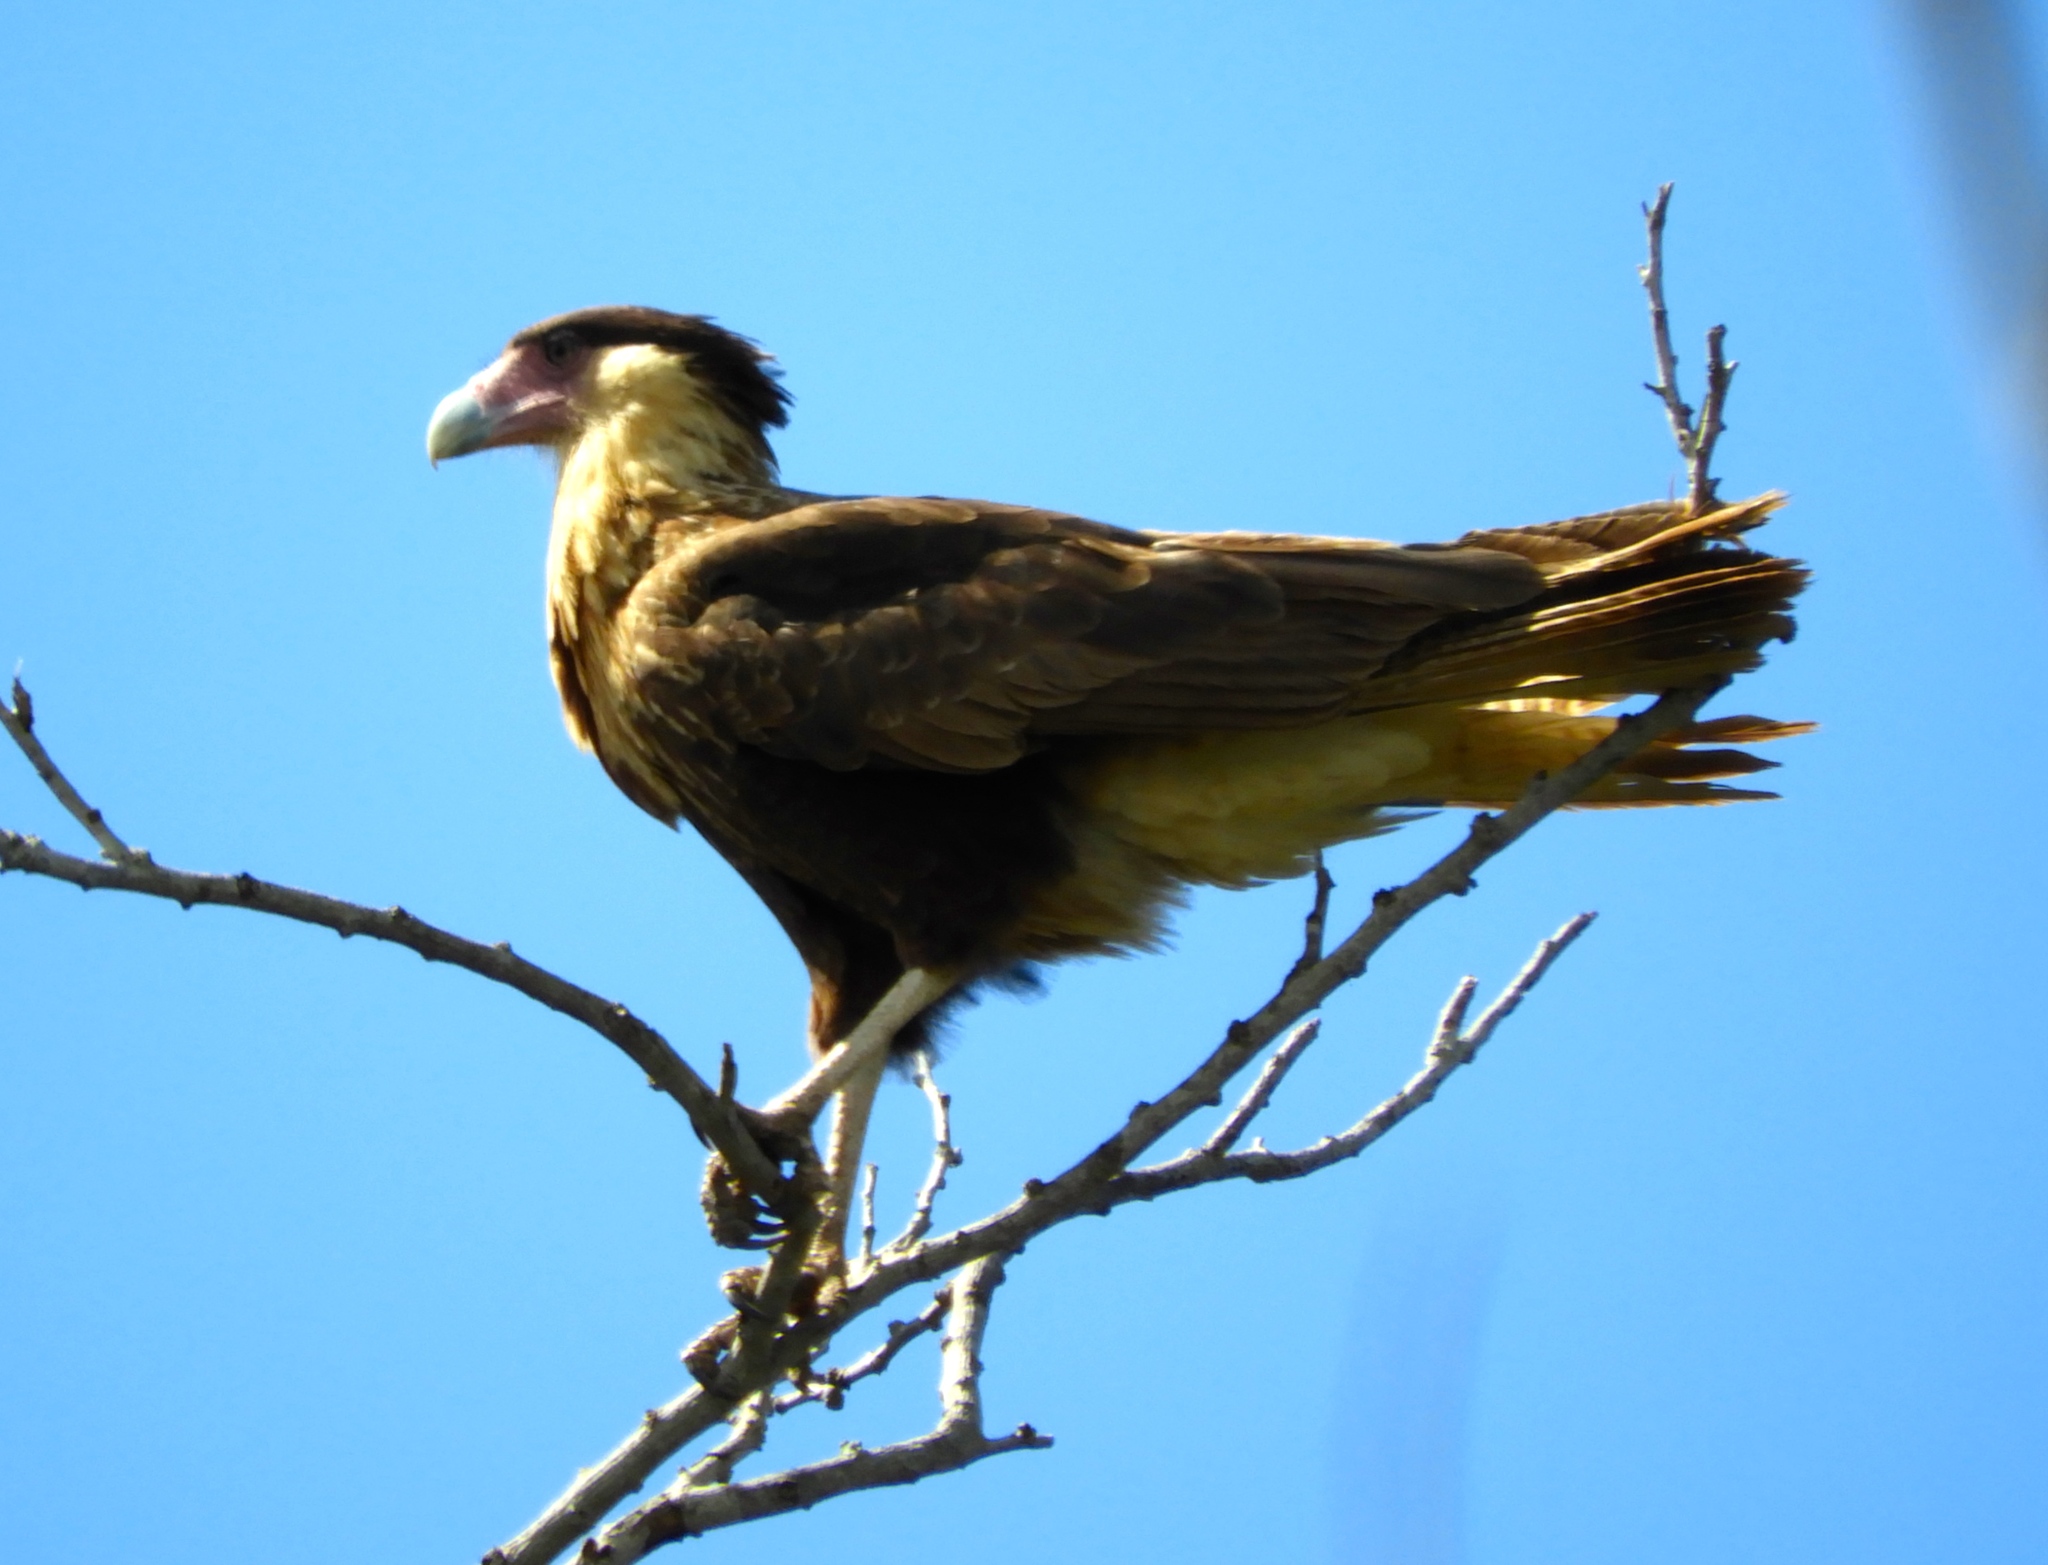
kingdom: Animalia
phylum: Chordata
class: Aves
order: Falconiformes
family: Falconidae
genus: Caracara
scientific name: Caracara plancus
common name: Southern caracara
